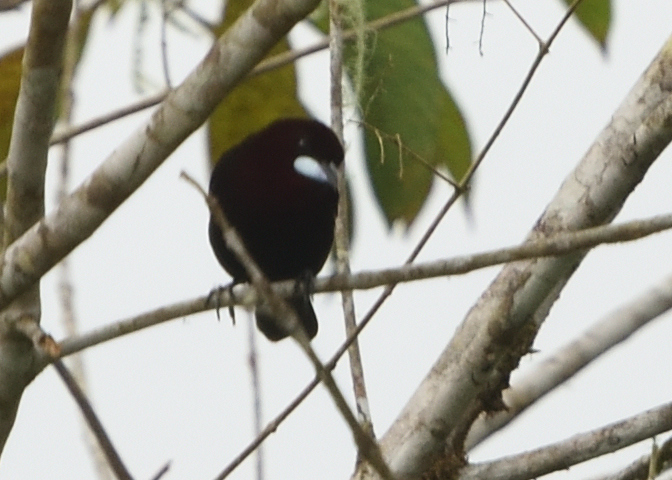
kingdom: Animalia
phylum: Chordata
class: Aves
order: Passeriformes
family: Thraupidae
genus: Ramphocelus
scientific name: Ramphocelus carbo
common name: Silver-beaked tanager
